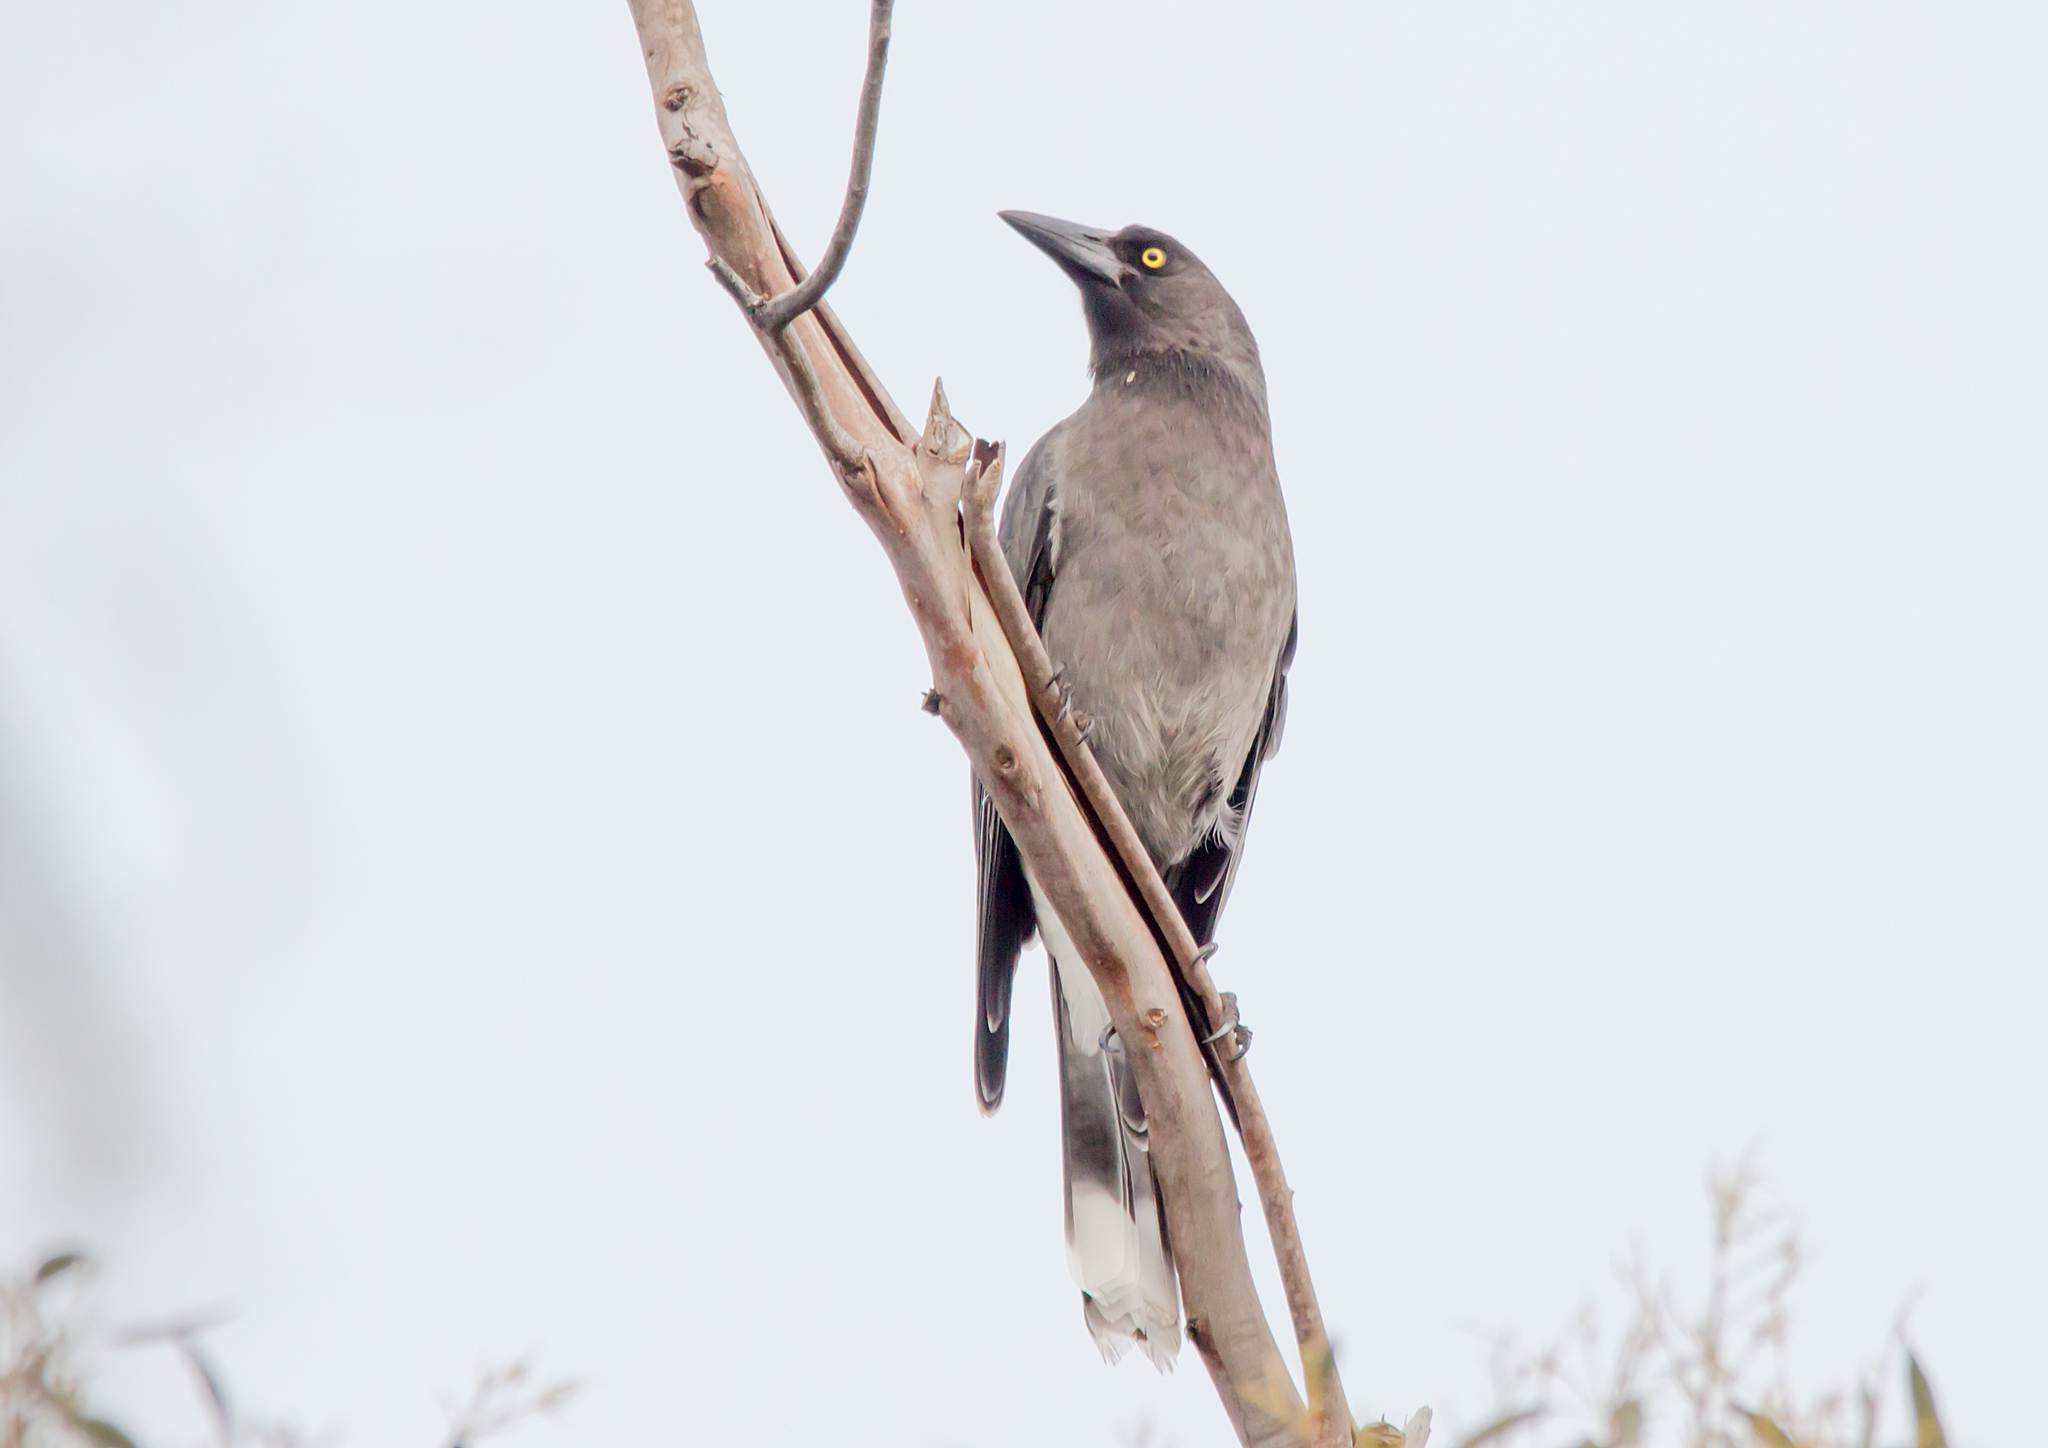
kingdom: Animalia
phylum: Chordata
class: Aves
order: Passeriformes
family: Cracticidae
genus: Strepera
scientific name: Strepera versicolor
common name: Grey currawong
